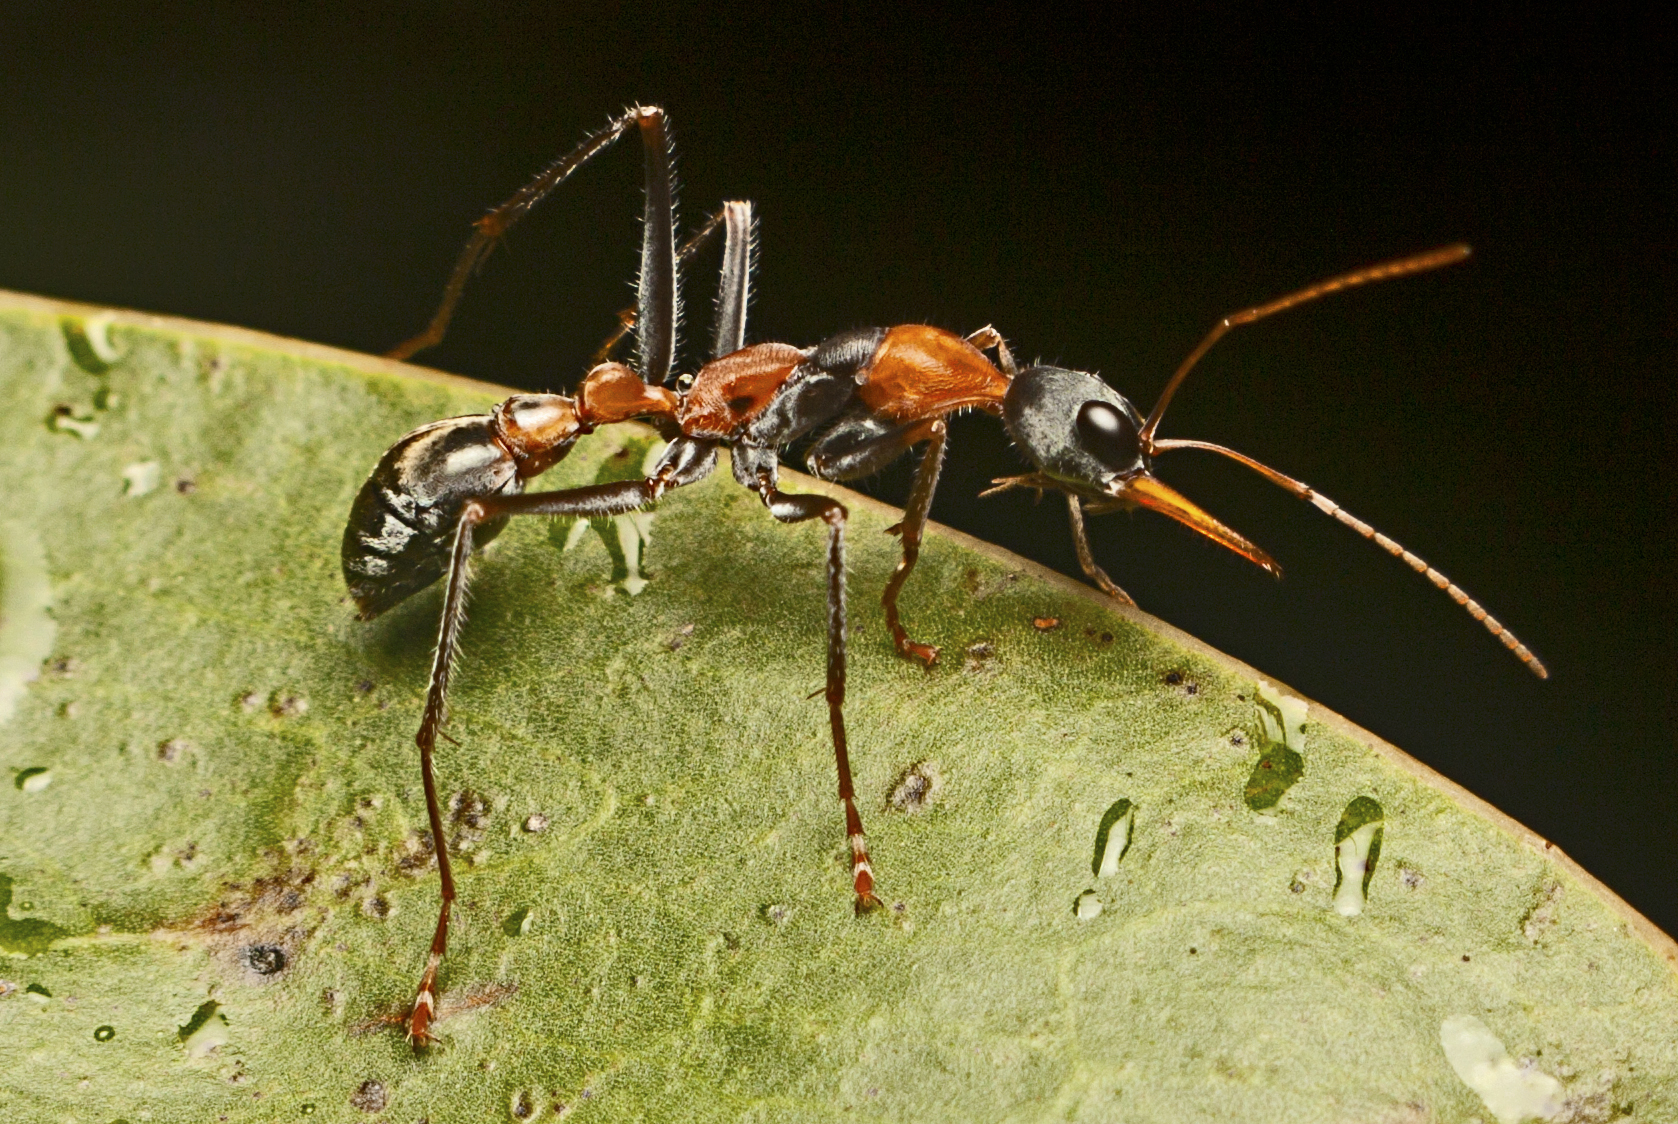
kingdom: Animalia
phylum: Arthropoda
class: Insecta
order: Hymenoptera
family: Formicidae
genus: Myrmecia
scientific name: Myrmecia nigrocincta
